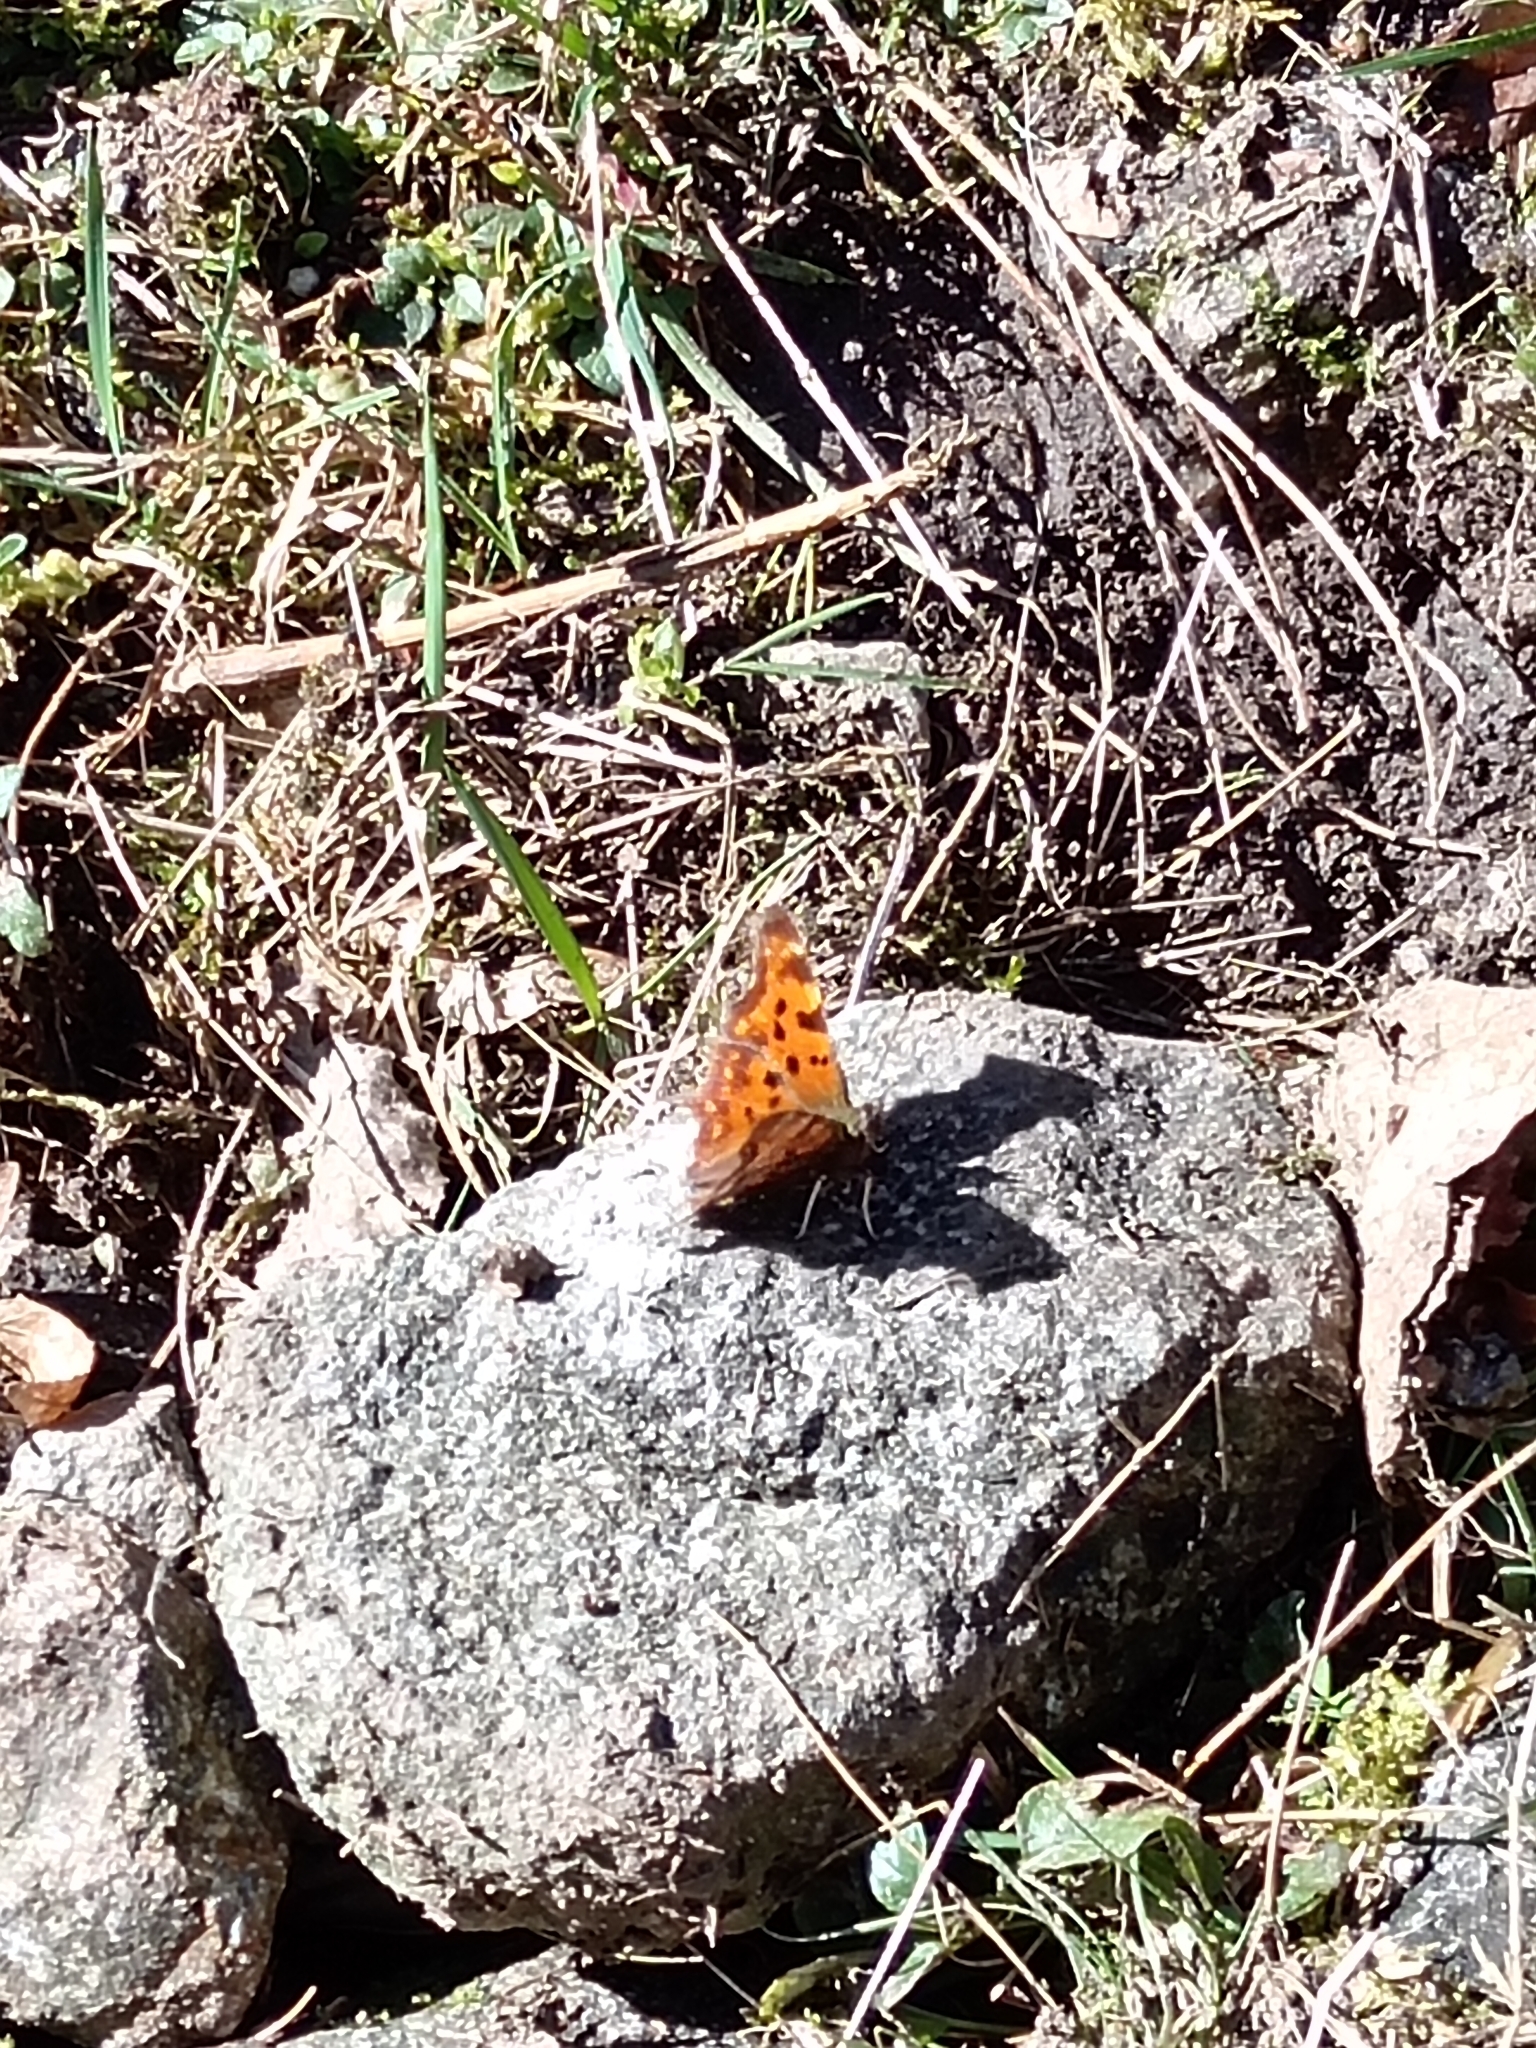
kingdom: Animalia
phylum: Arthropoda
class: Insecta
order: Lepidoptera
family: Nymphalidae
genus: Polygonia
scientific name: Polygonia c-album
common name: Comma
